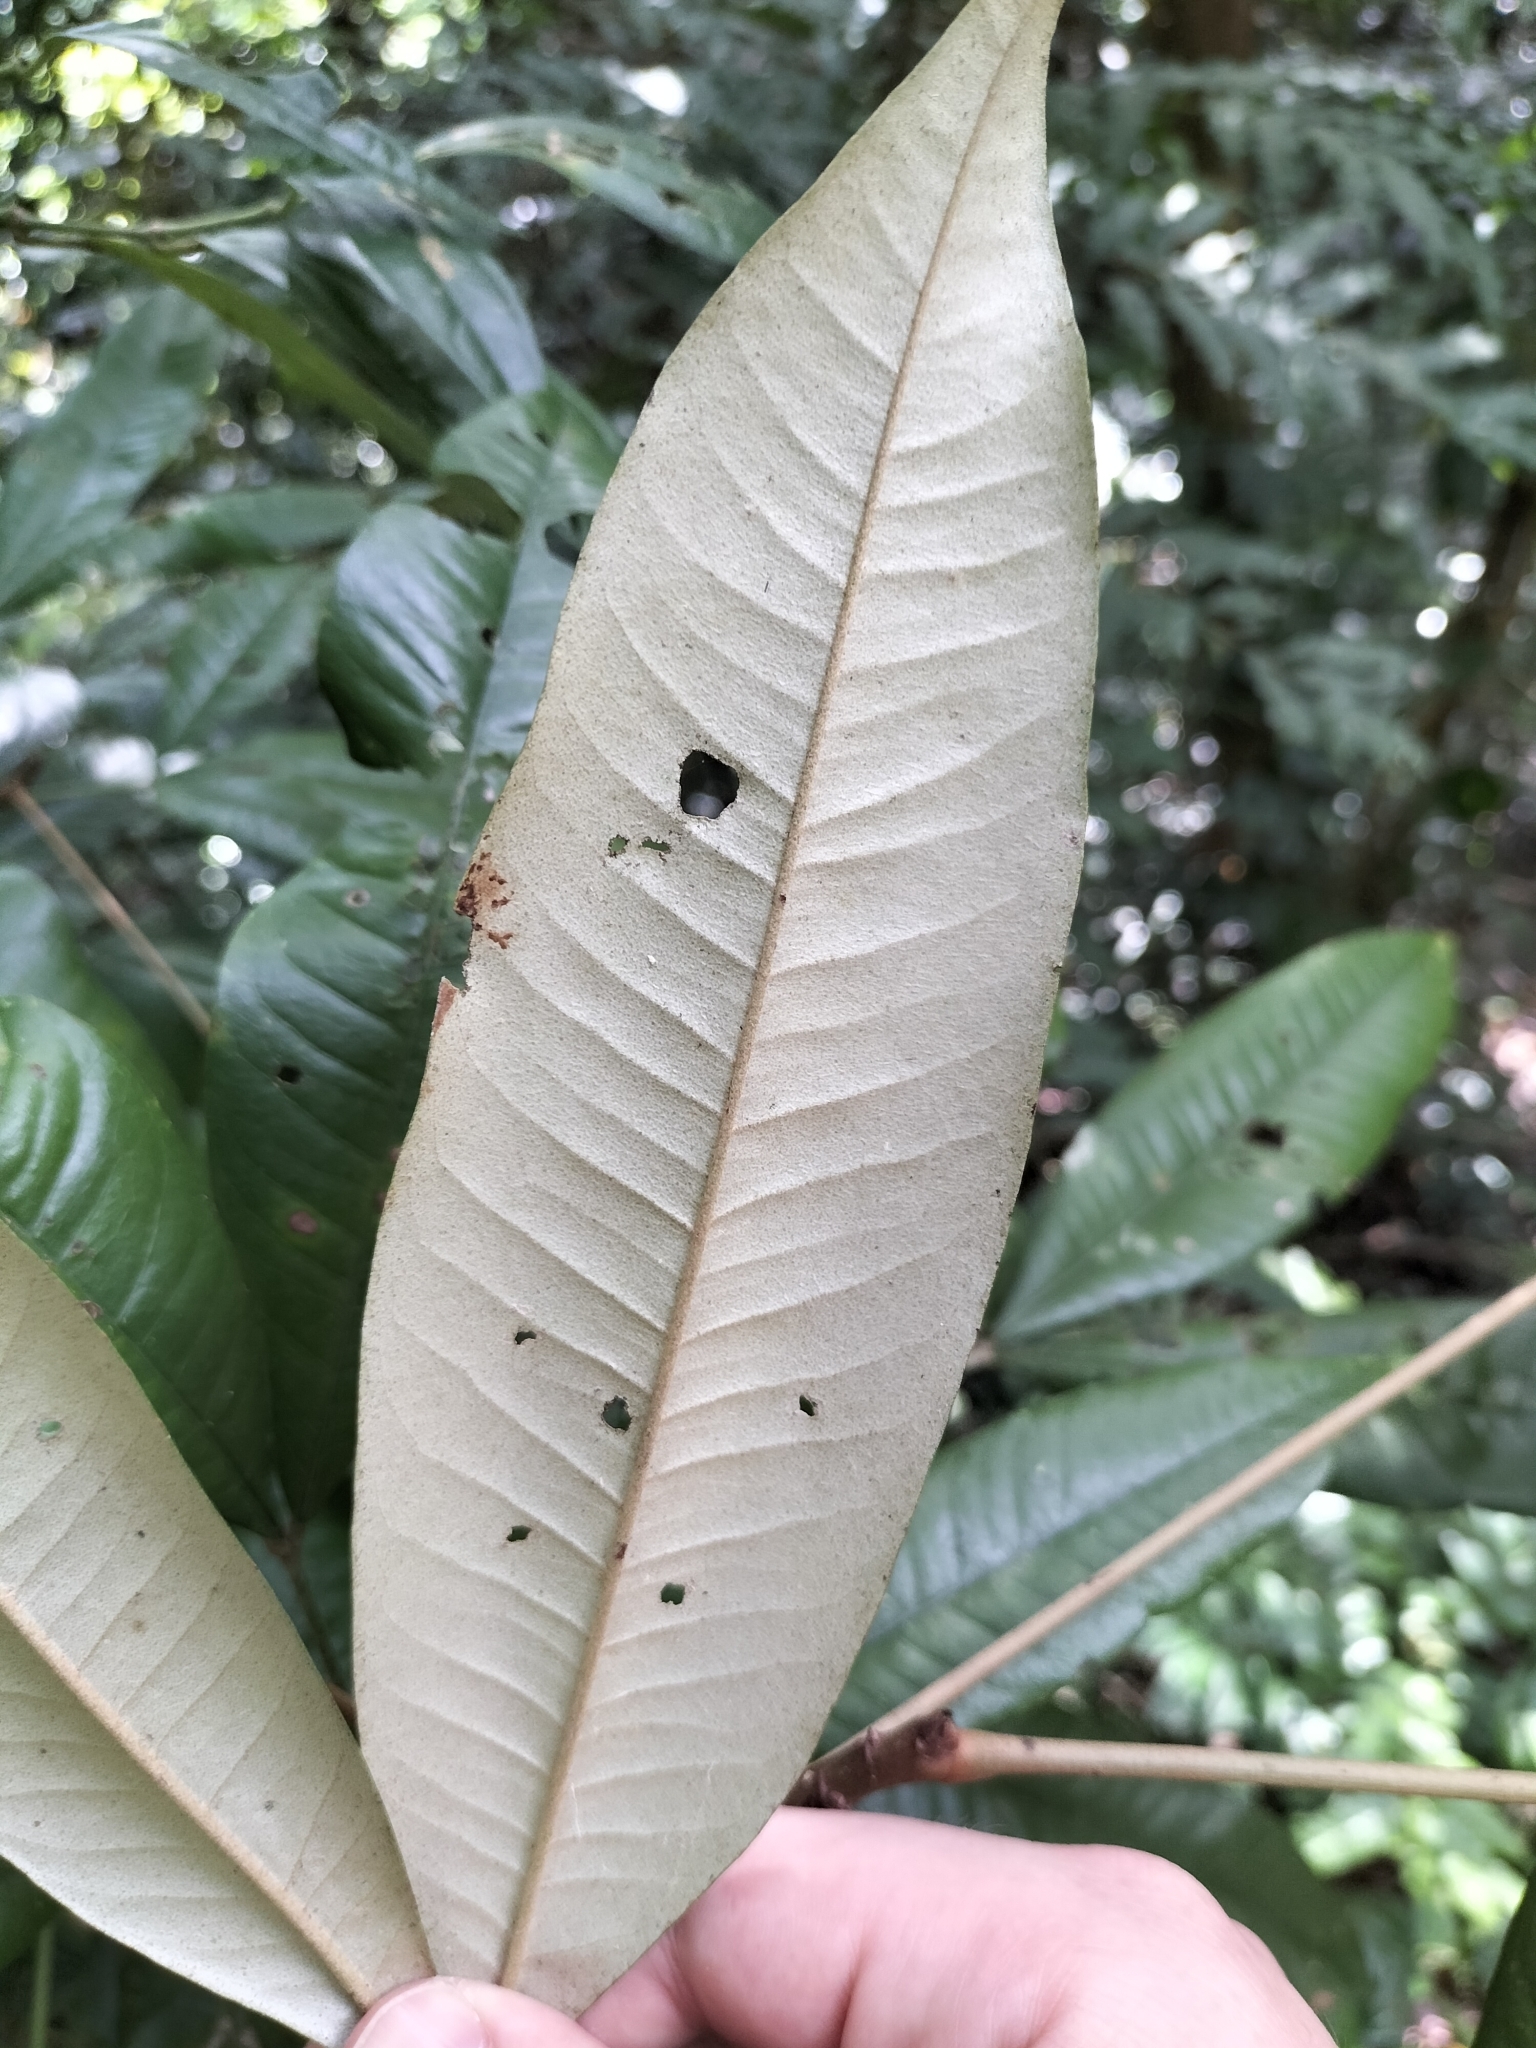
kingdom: Plantae
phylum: Tracheophyta
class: Magnoliopsida
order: Malvales
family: Malvaceae
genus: Argyrodendron
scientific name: Argyrodendron trifoliolatum
